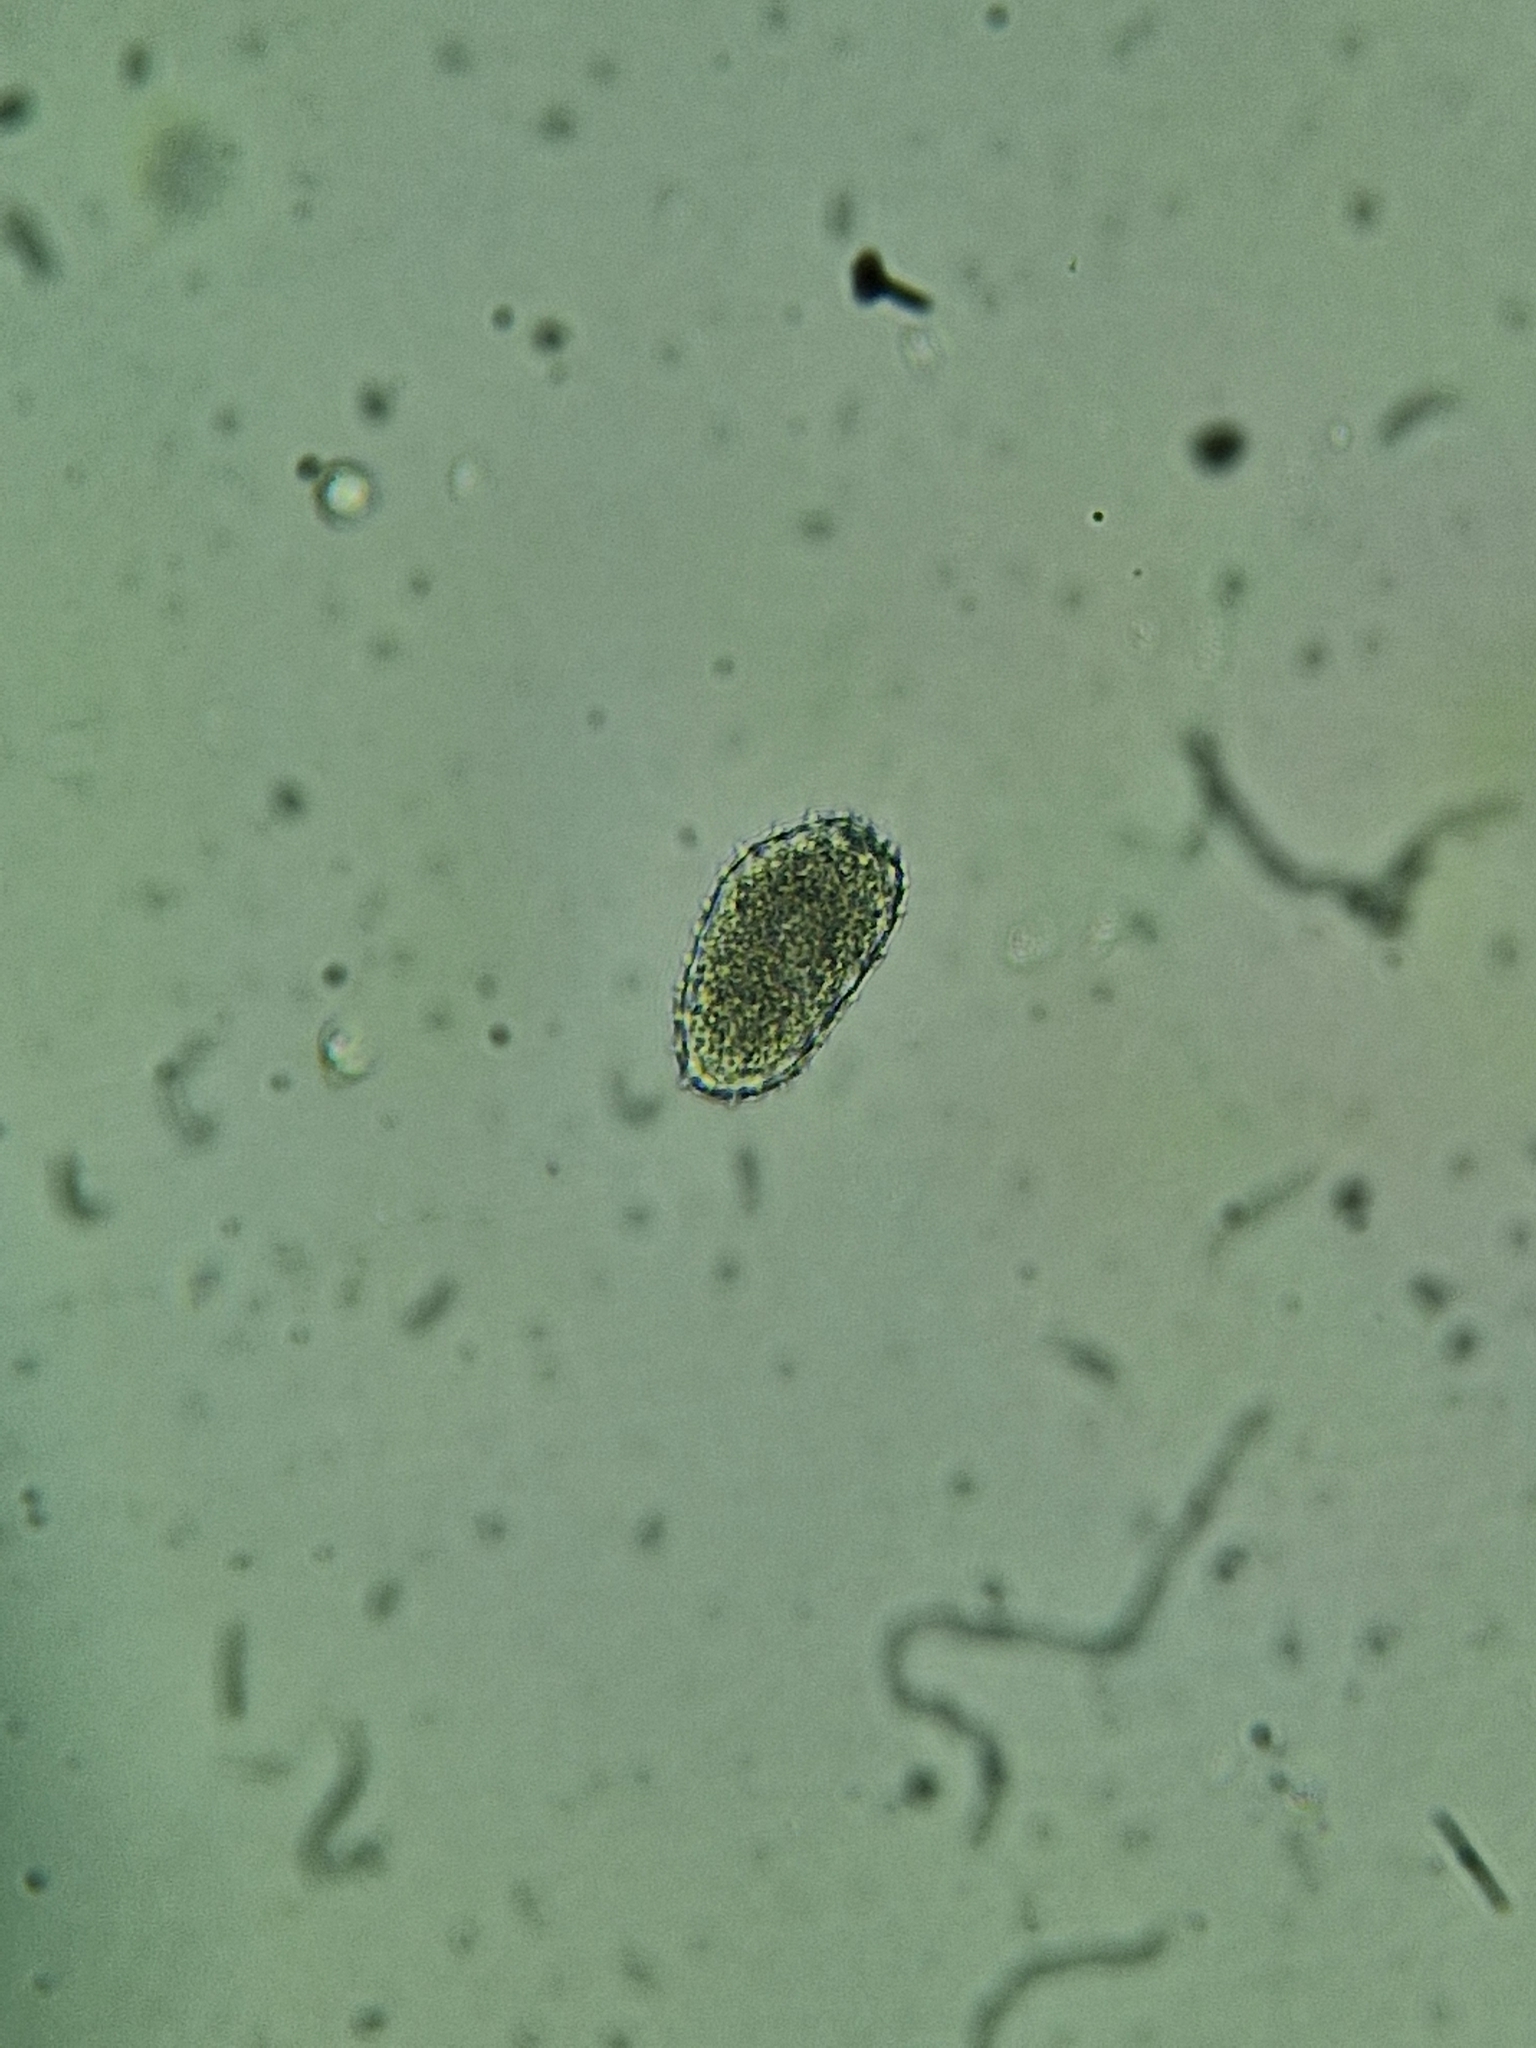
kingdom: Fungi
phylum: Basidiomycota
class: Pucciniomycetes
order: Pucciniales
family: Milesinaceae
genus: Milesina
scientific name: Milesina scolopendrii
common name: Hart's tongue fern rust
